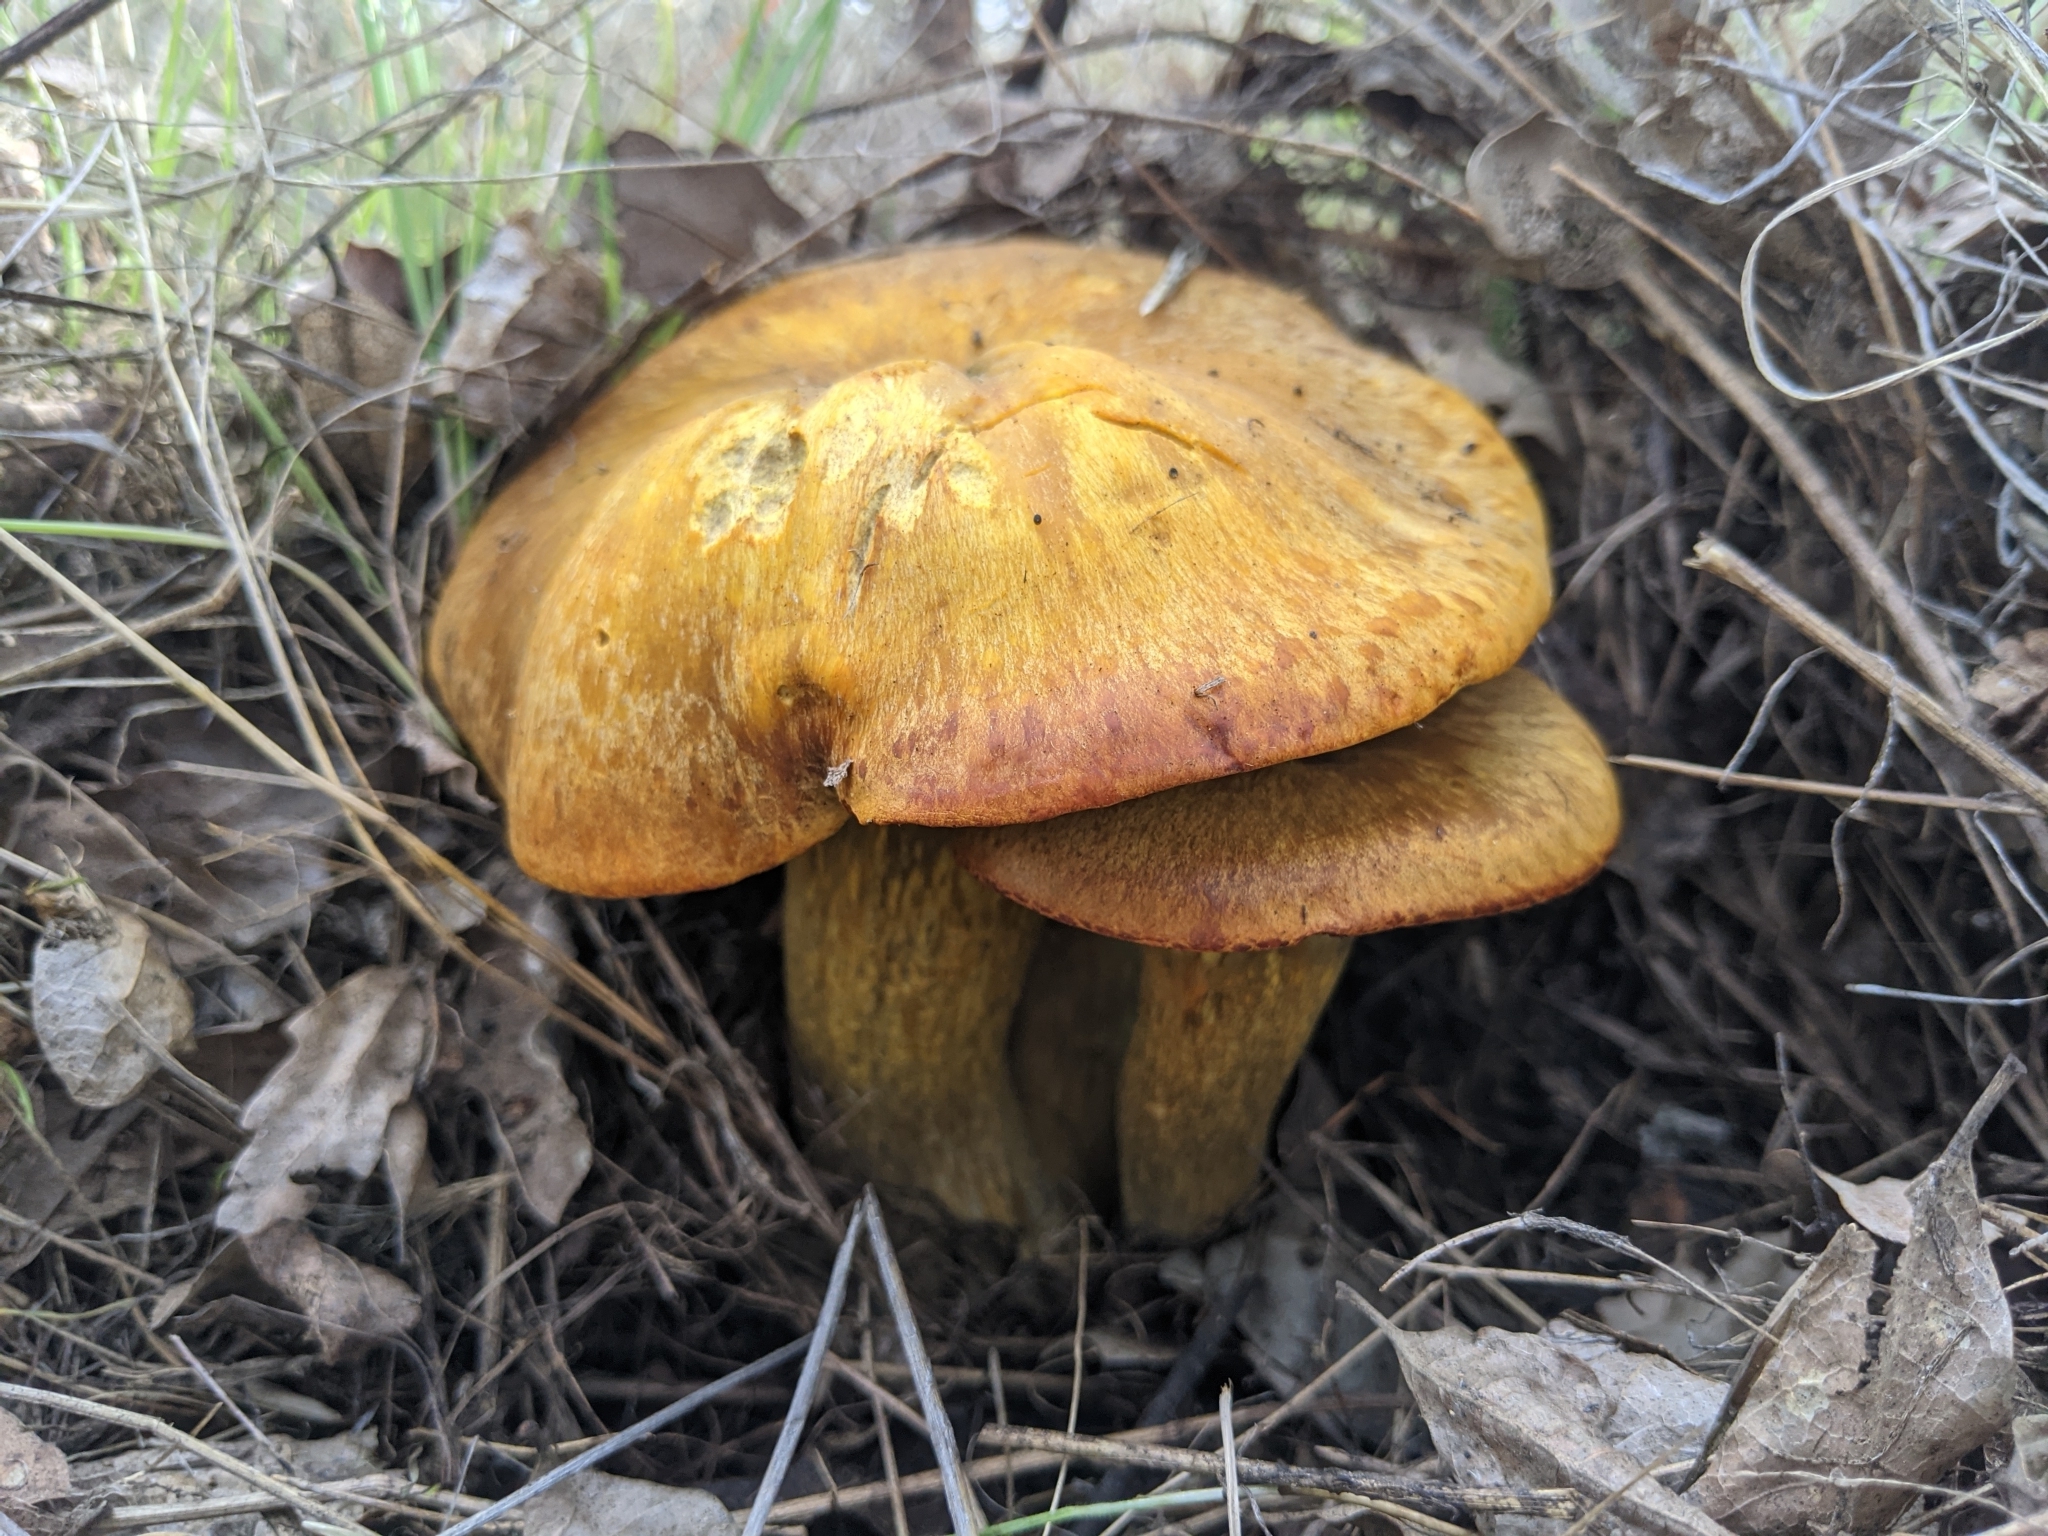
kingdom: Fungi
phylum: Basidiomycota
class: Agaricomycetes
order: Agaricales
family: Omphalotaceae
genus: Omphalotus
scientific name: Omphalotus olivascens
